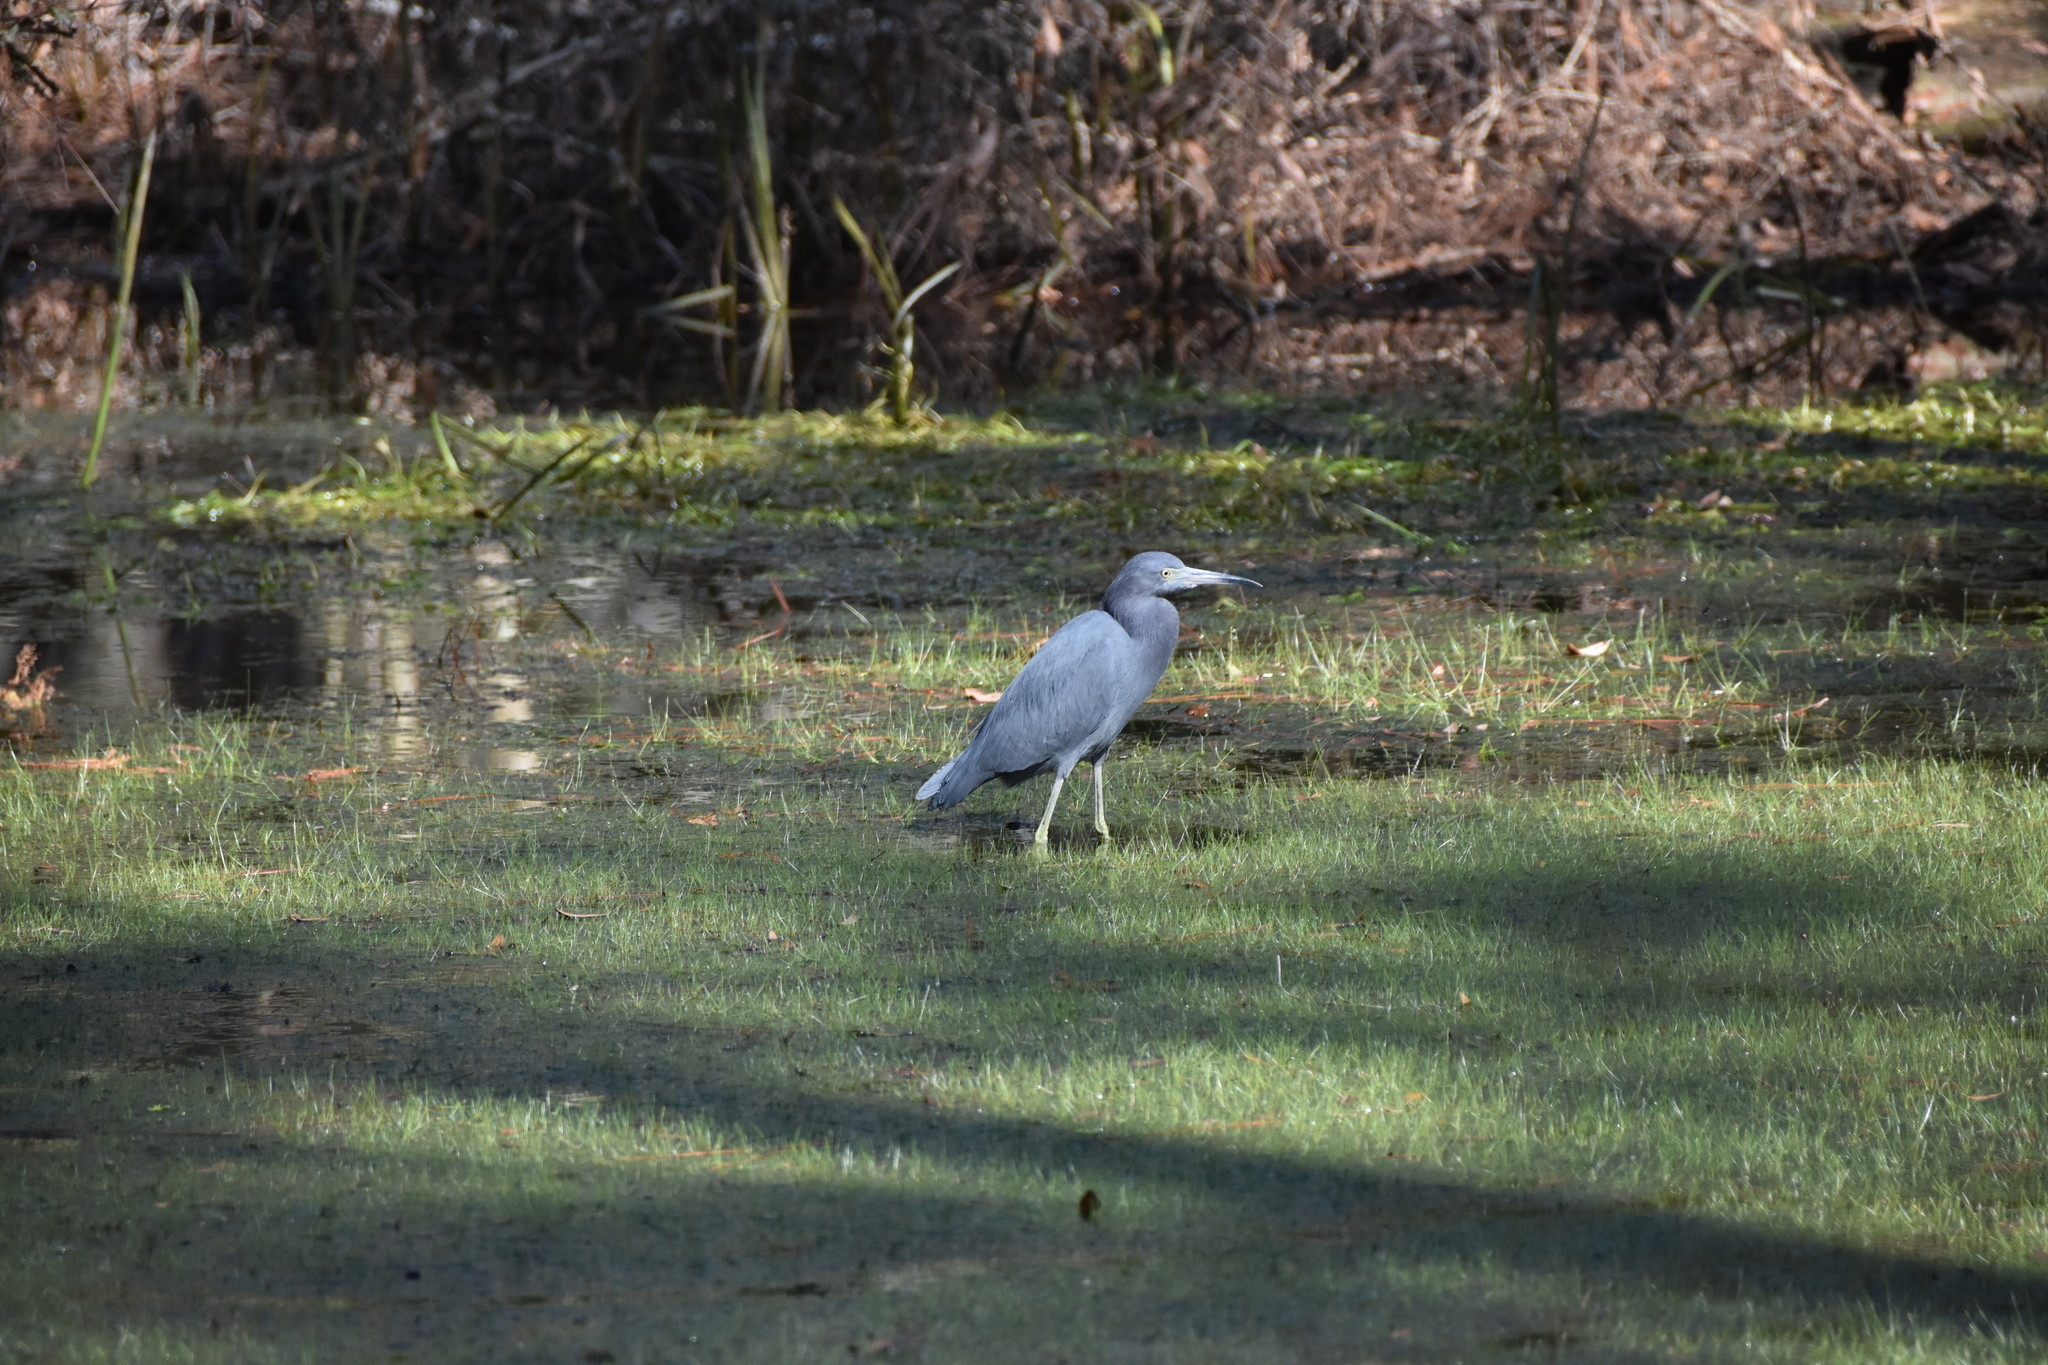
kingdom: Animalia
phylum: Chordata
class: Aves
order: Pelecaniformes
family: Ardeidae
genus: Egretta
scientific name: Egretta caerulea
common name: Little blue heron
